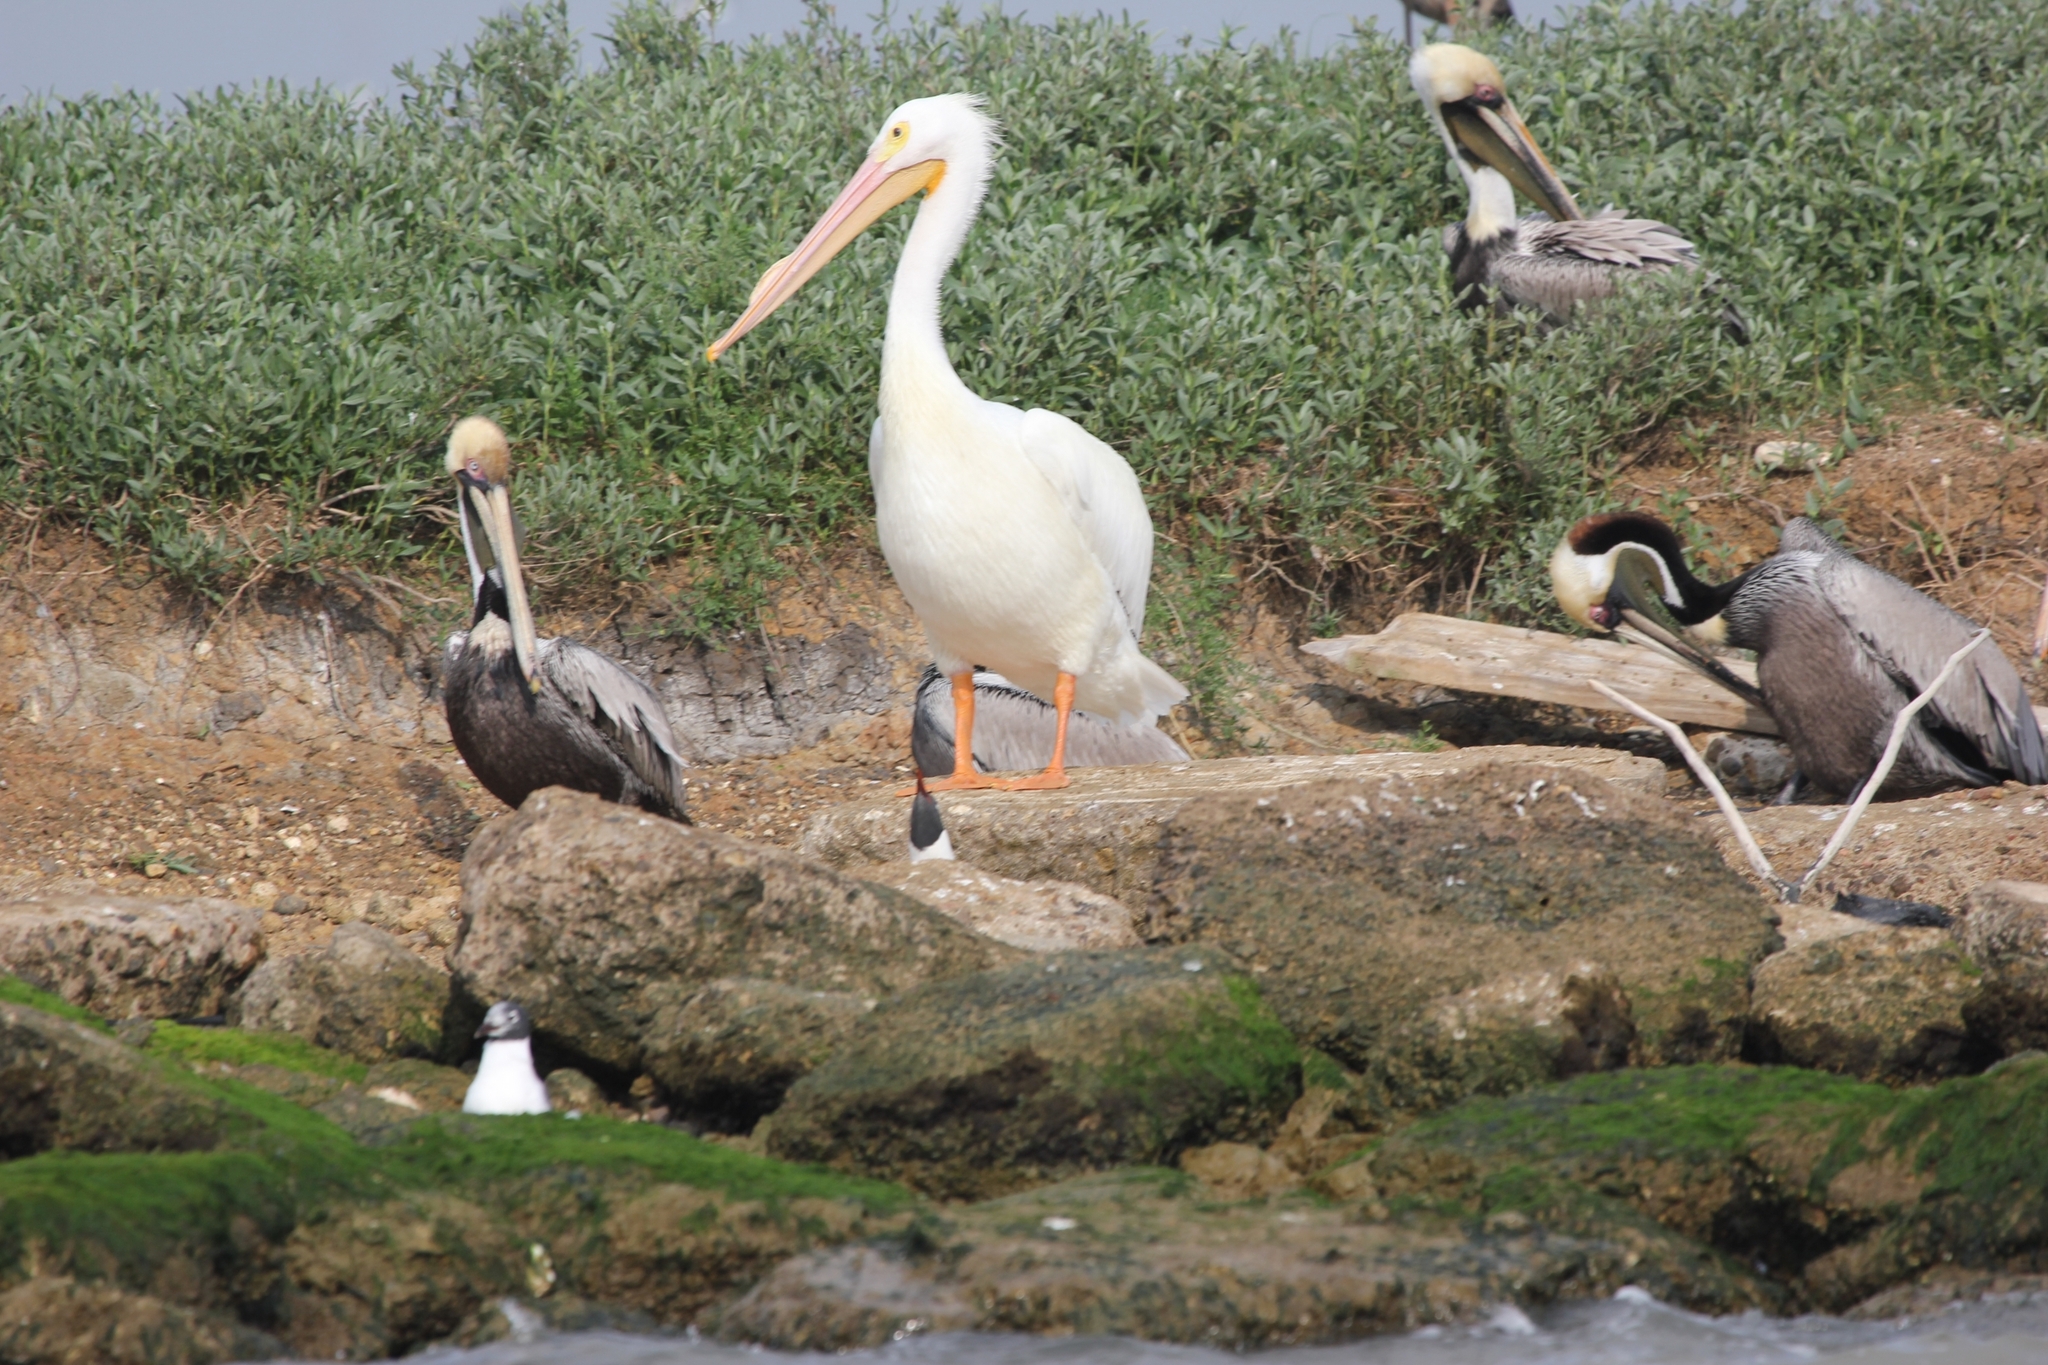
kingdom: Animalia
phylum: Chordata
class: Aves
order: Pelecaniformes
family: Pelecanidae
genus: Pelecanus
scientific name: Pelecanus erythrorhynchos
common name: American white pelican
